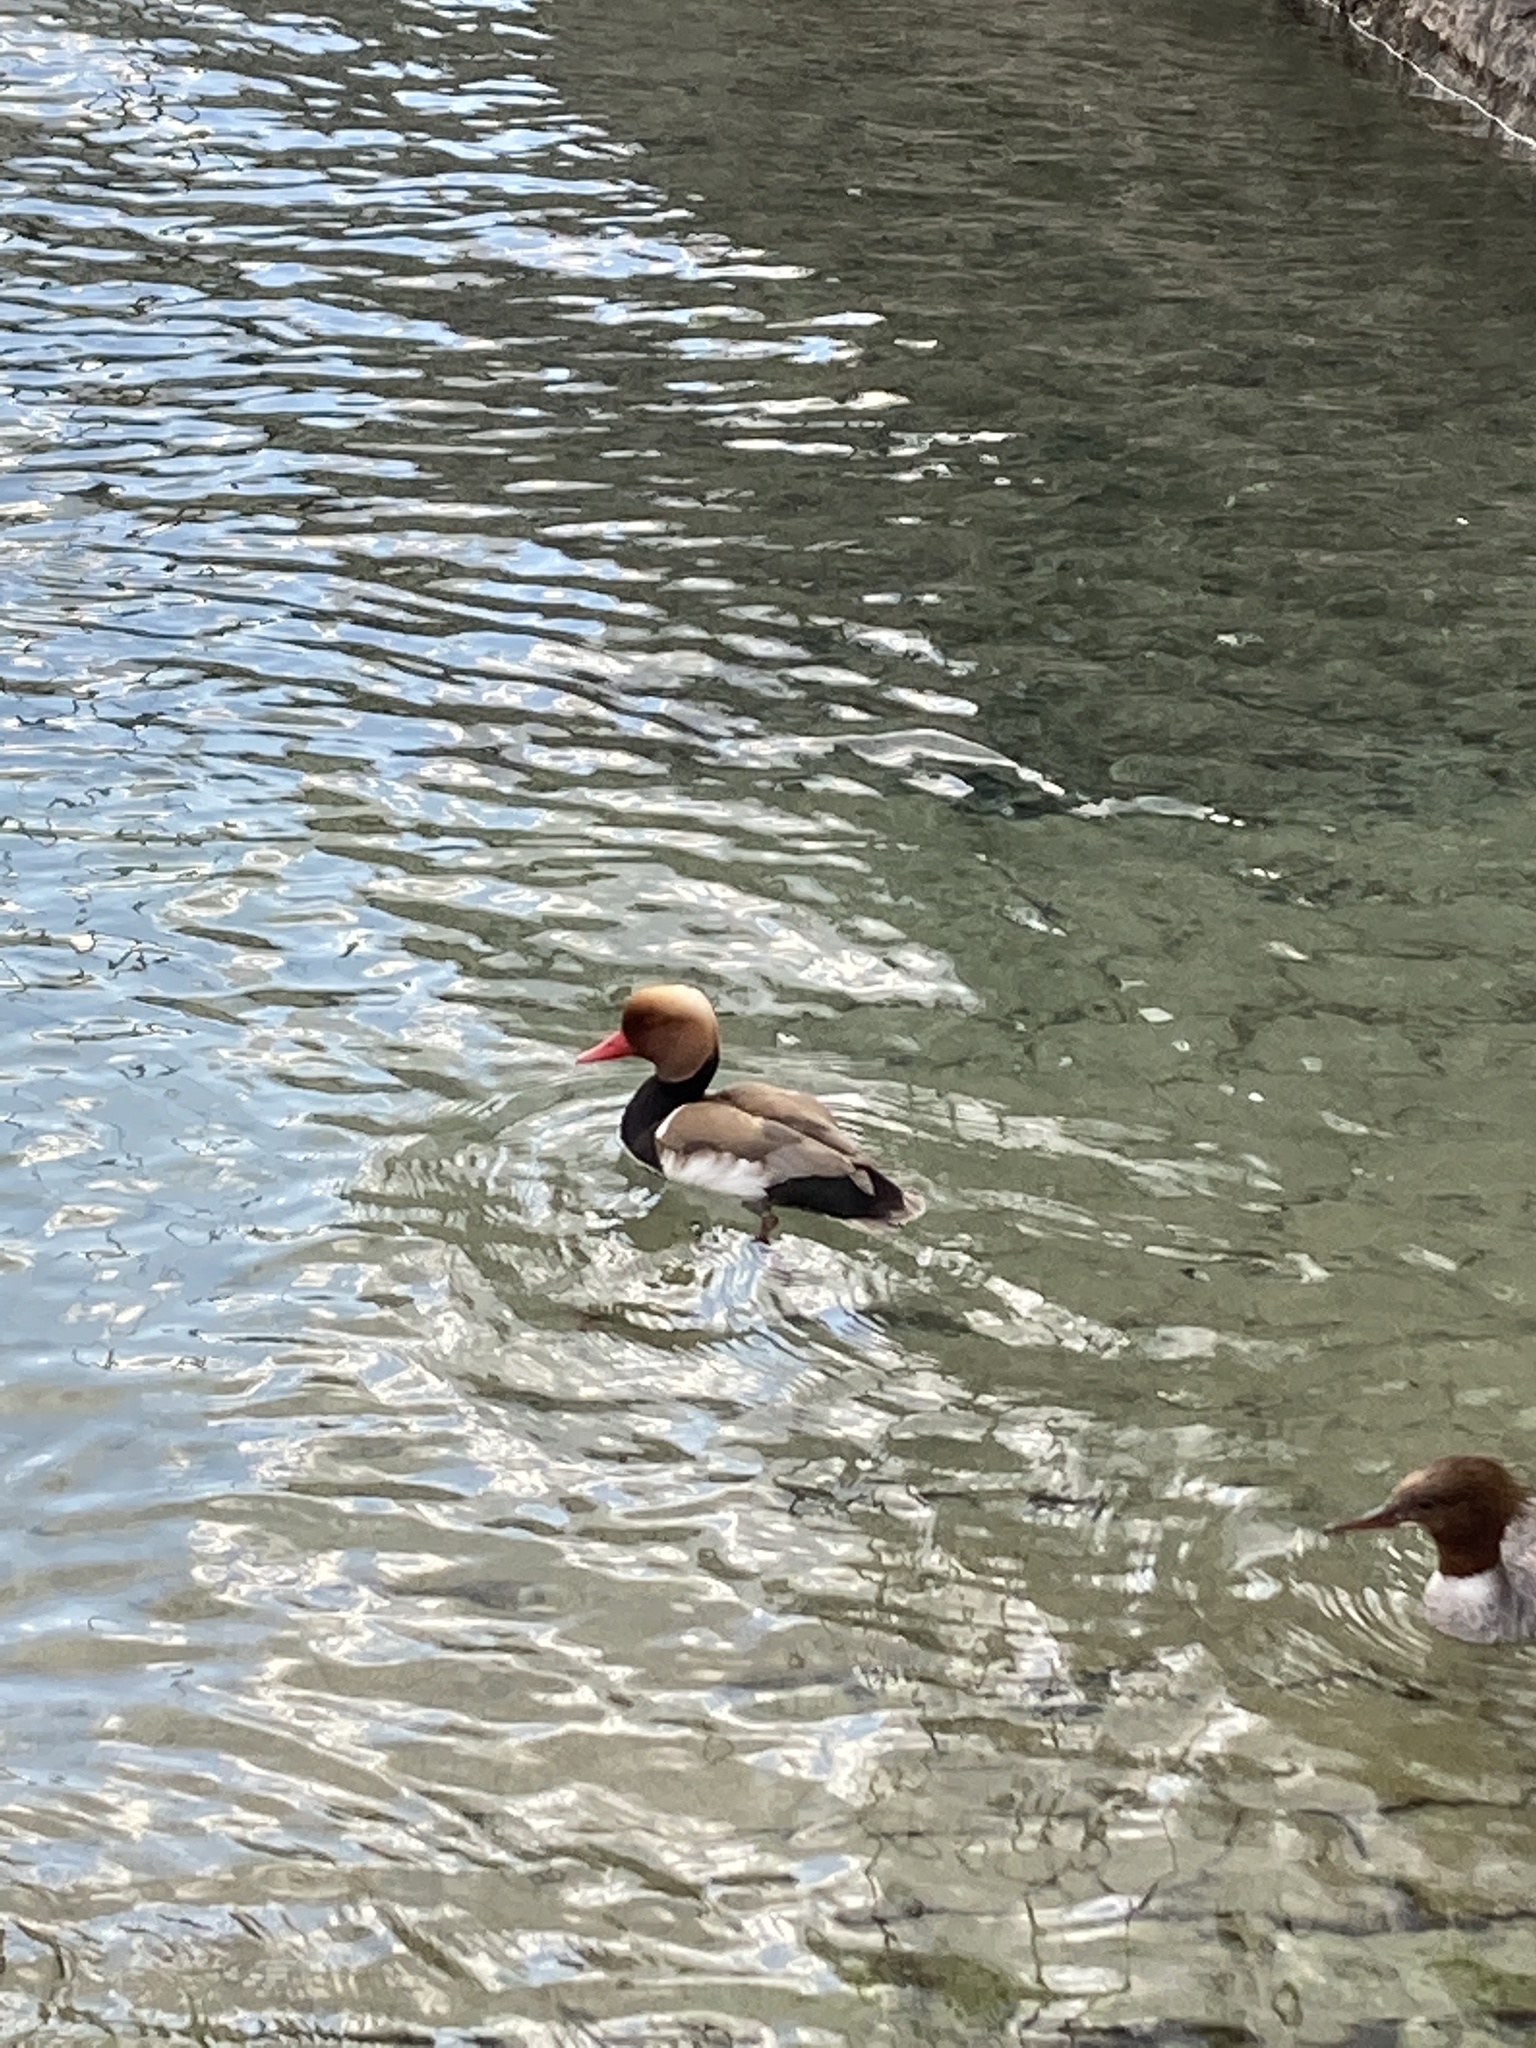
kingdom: Animalia
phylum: Chordata
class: Aves
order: Anseriformes
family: Anatidae
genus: Netta
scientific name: Netta rufina
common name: Red-crested pochard
